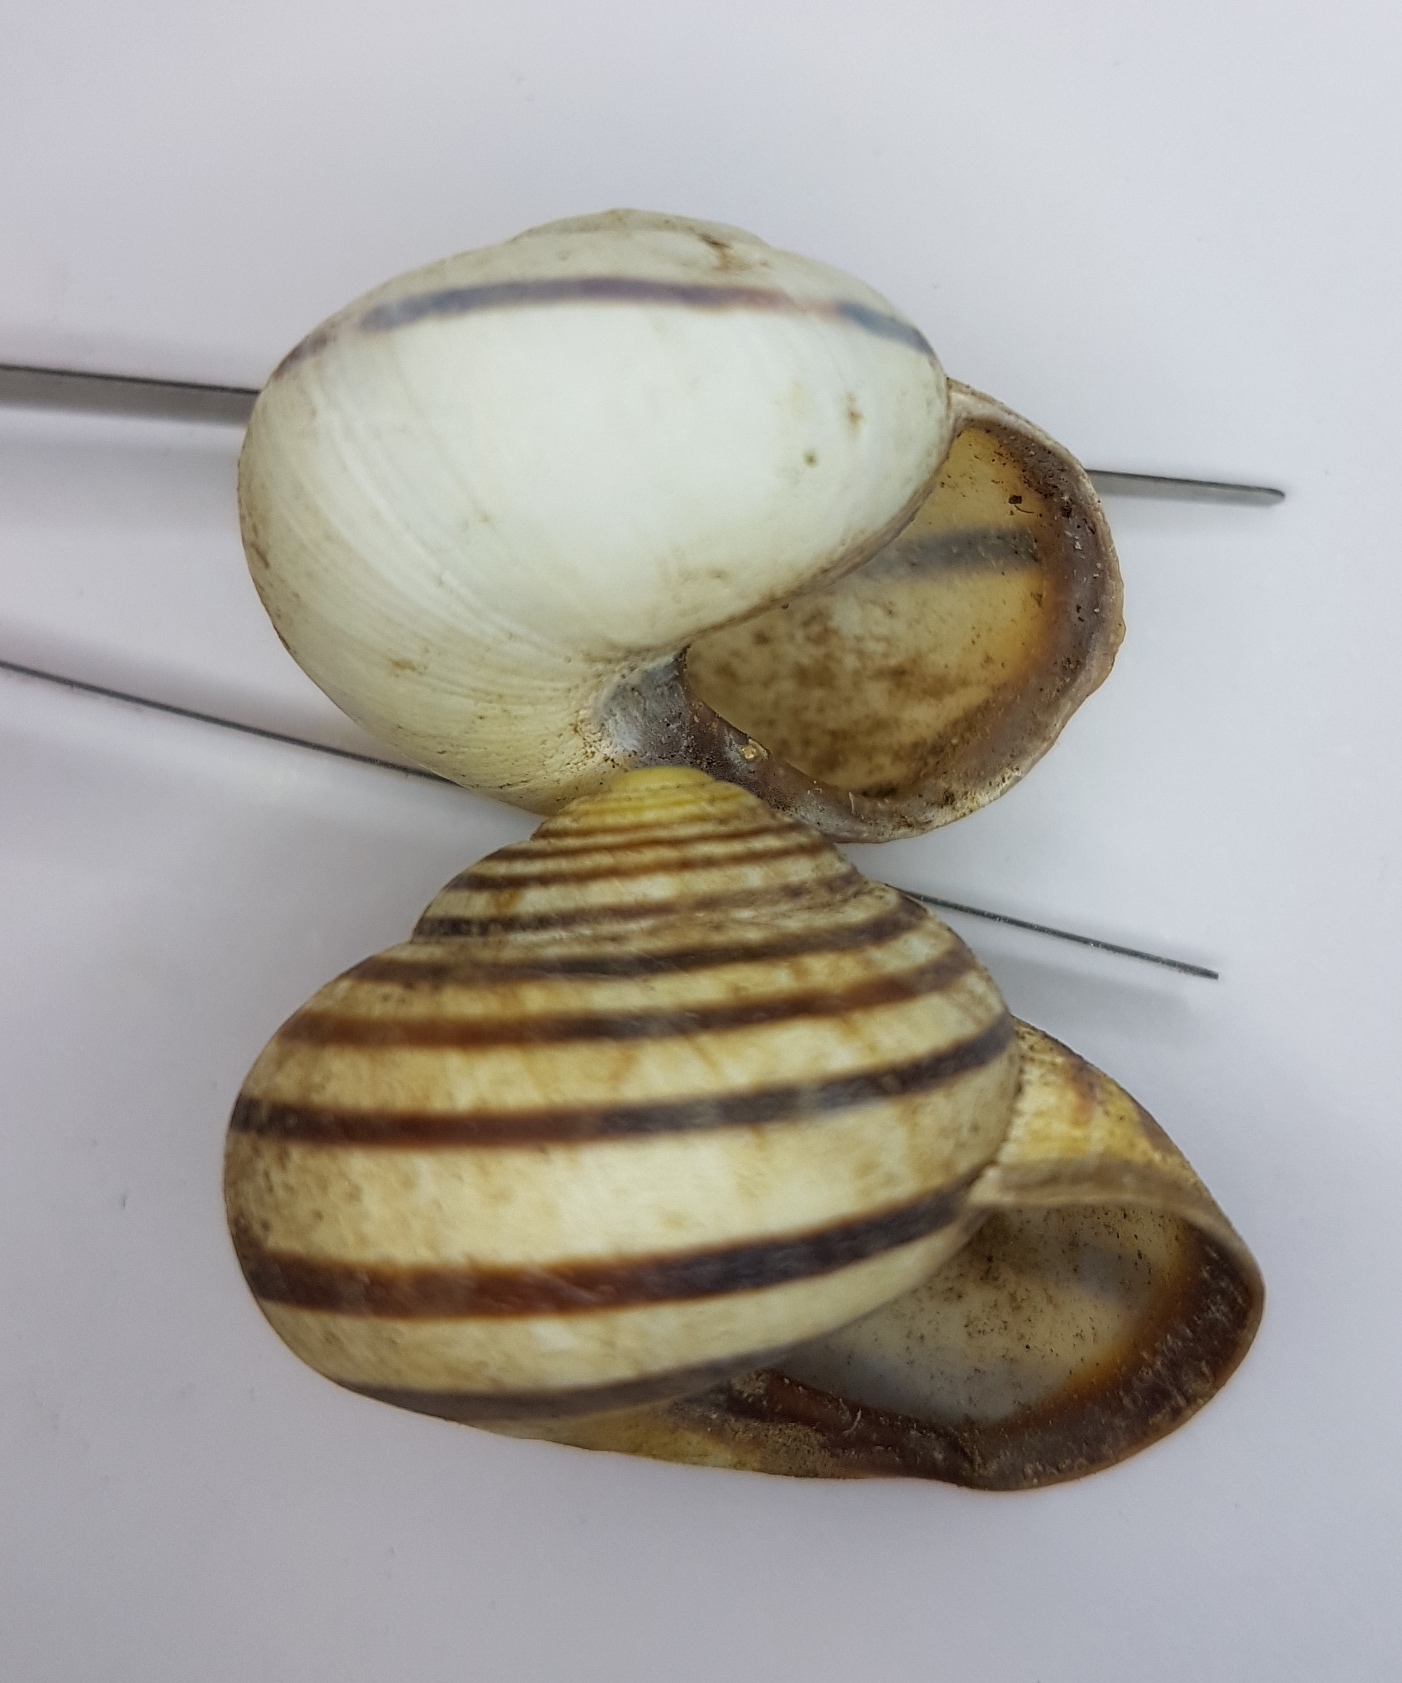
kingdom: Animalia
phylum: Mollusca
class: Gastropoda
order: Stylommatophora
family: Helicidae
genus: Cepaea
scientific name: Cepaea nemoralis
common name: Grovesnail
